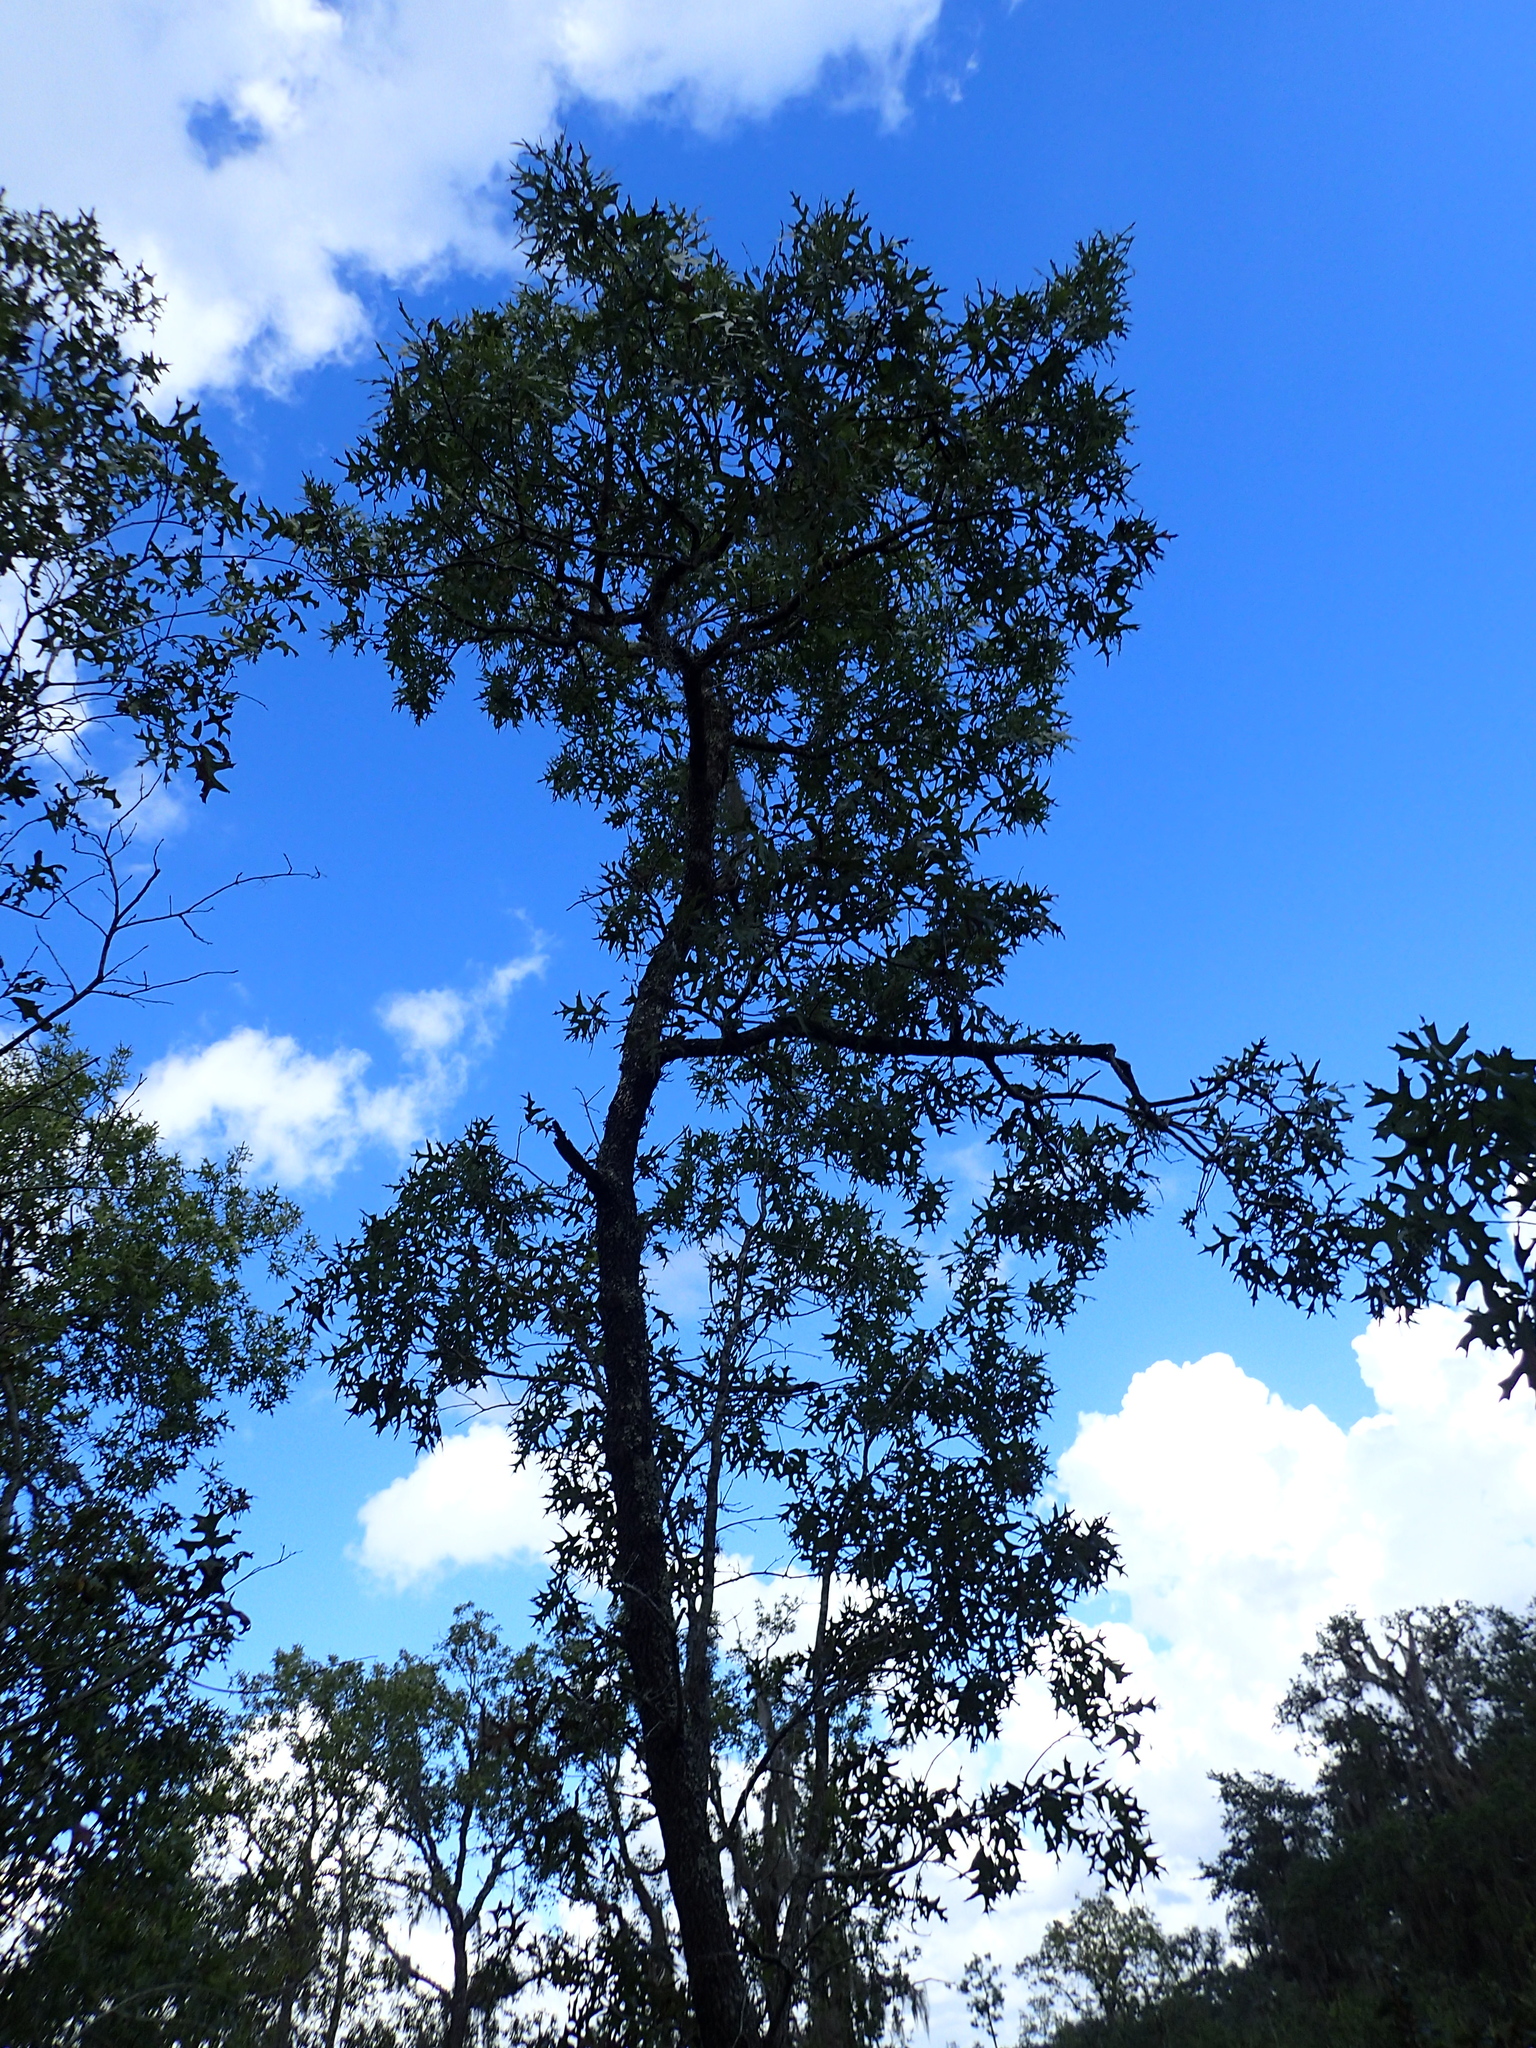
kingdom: Plantae
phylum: Tracheophyta
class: Magnoliopsida
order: Fagales
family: Fagaceae
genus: Quercus
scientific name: Quercus laevis
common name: Turkey oak
